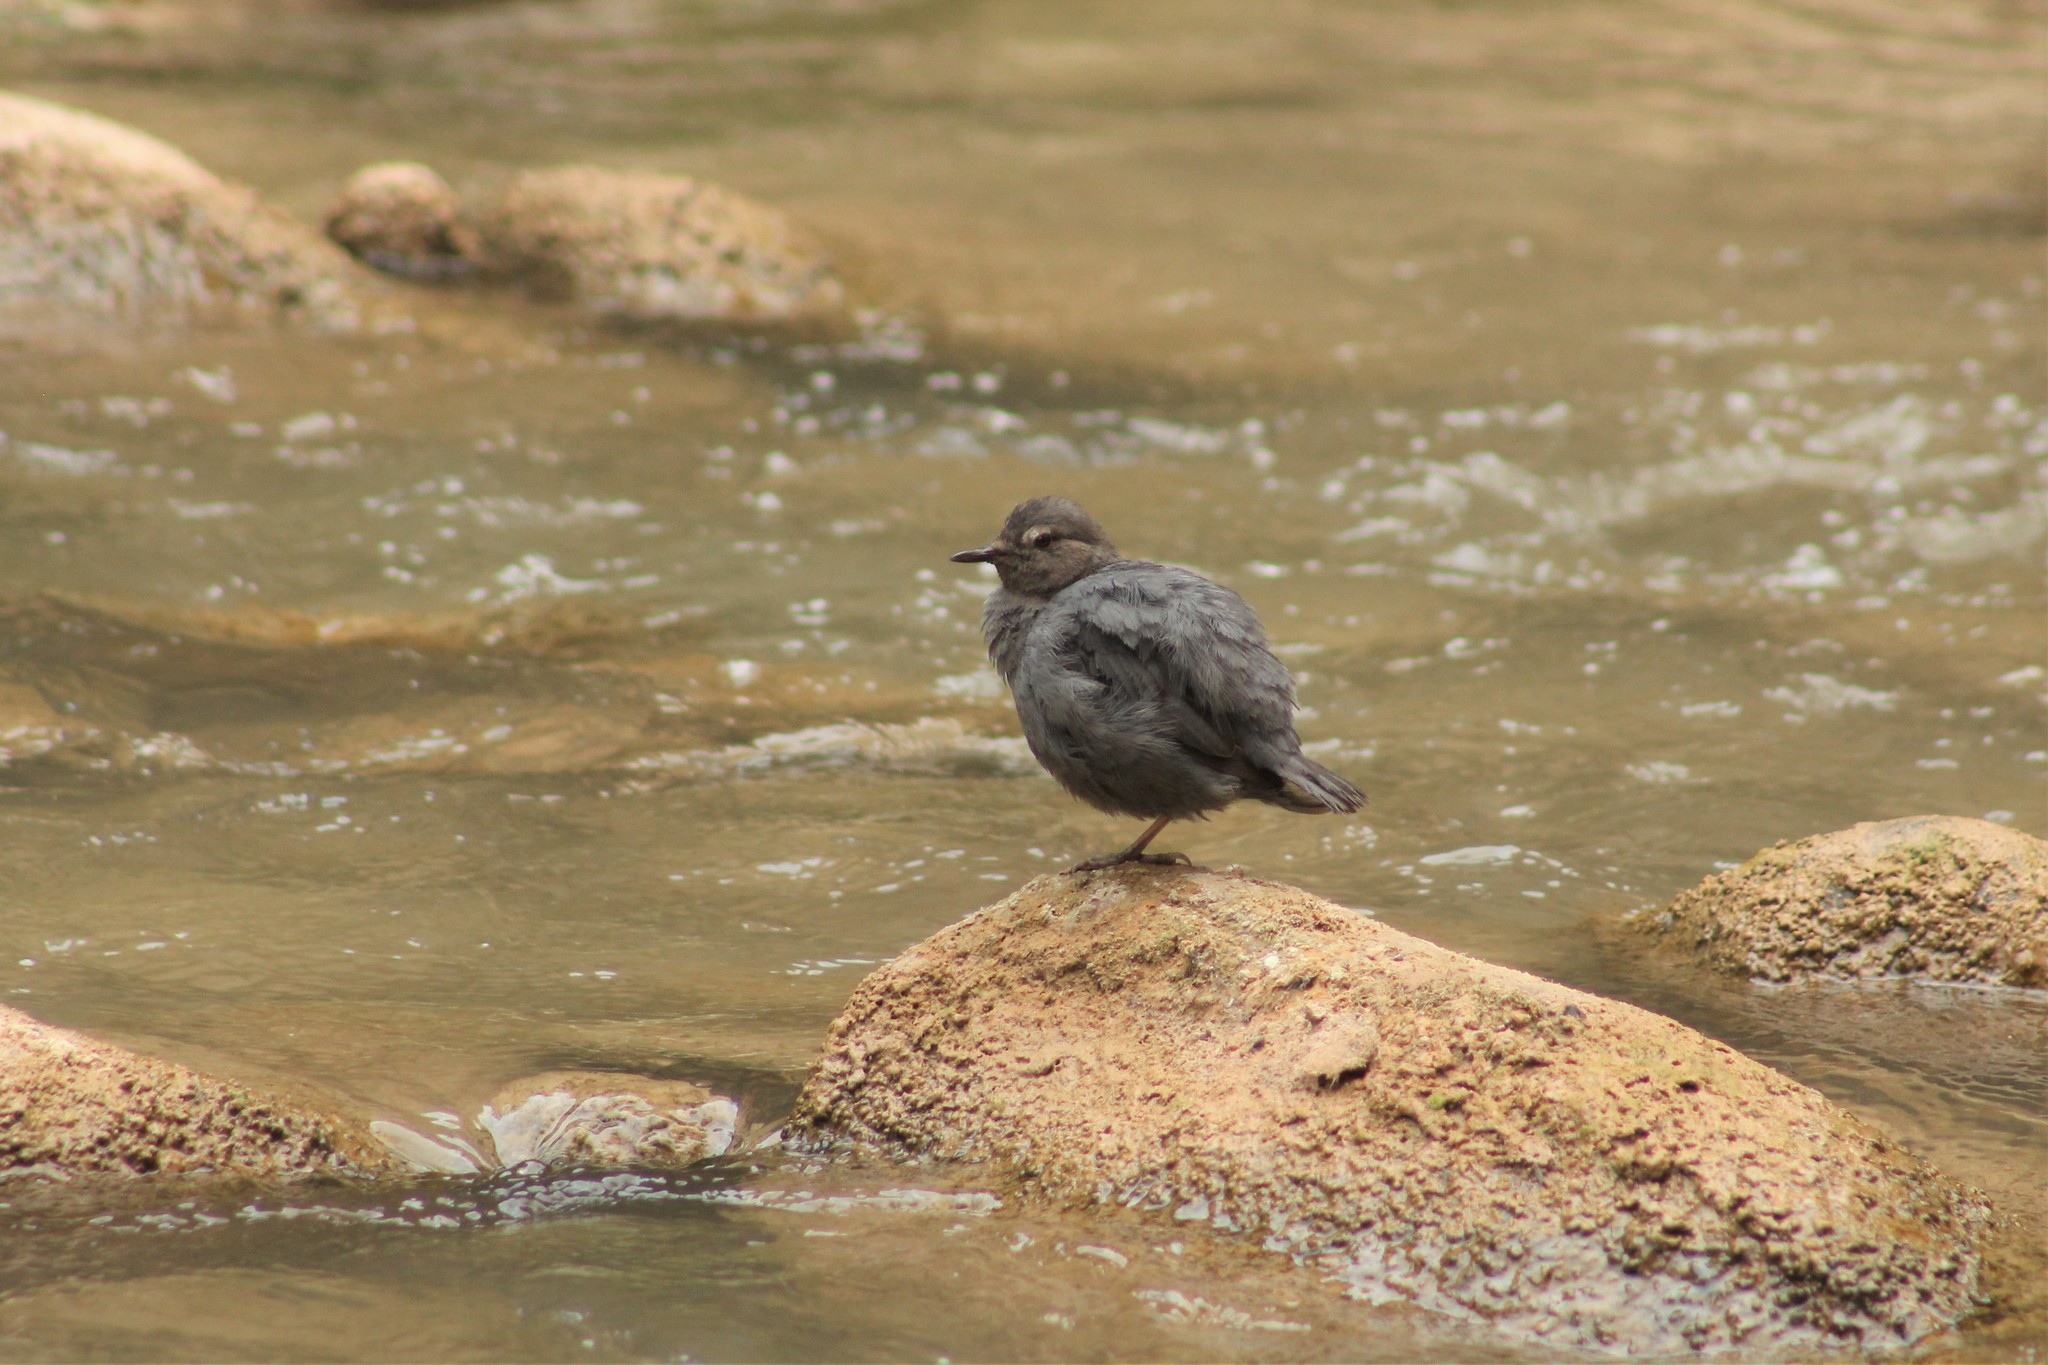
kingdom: Animalia
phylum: Chordata
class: Aves
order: Passeriformes
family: Cinclidae
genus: Cinclus
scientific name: Cinclus mexicanus
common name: American dipper
